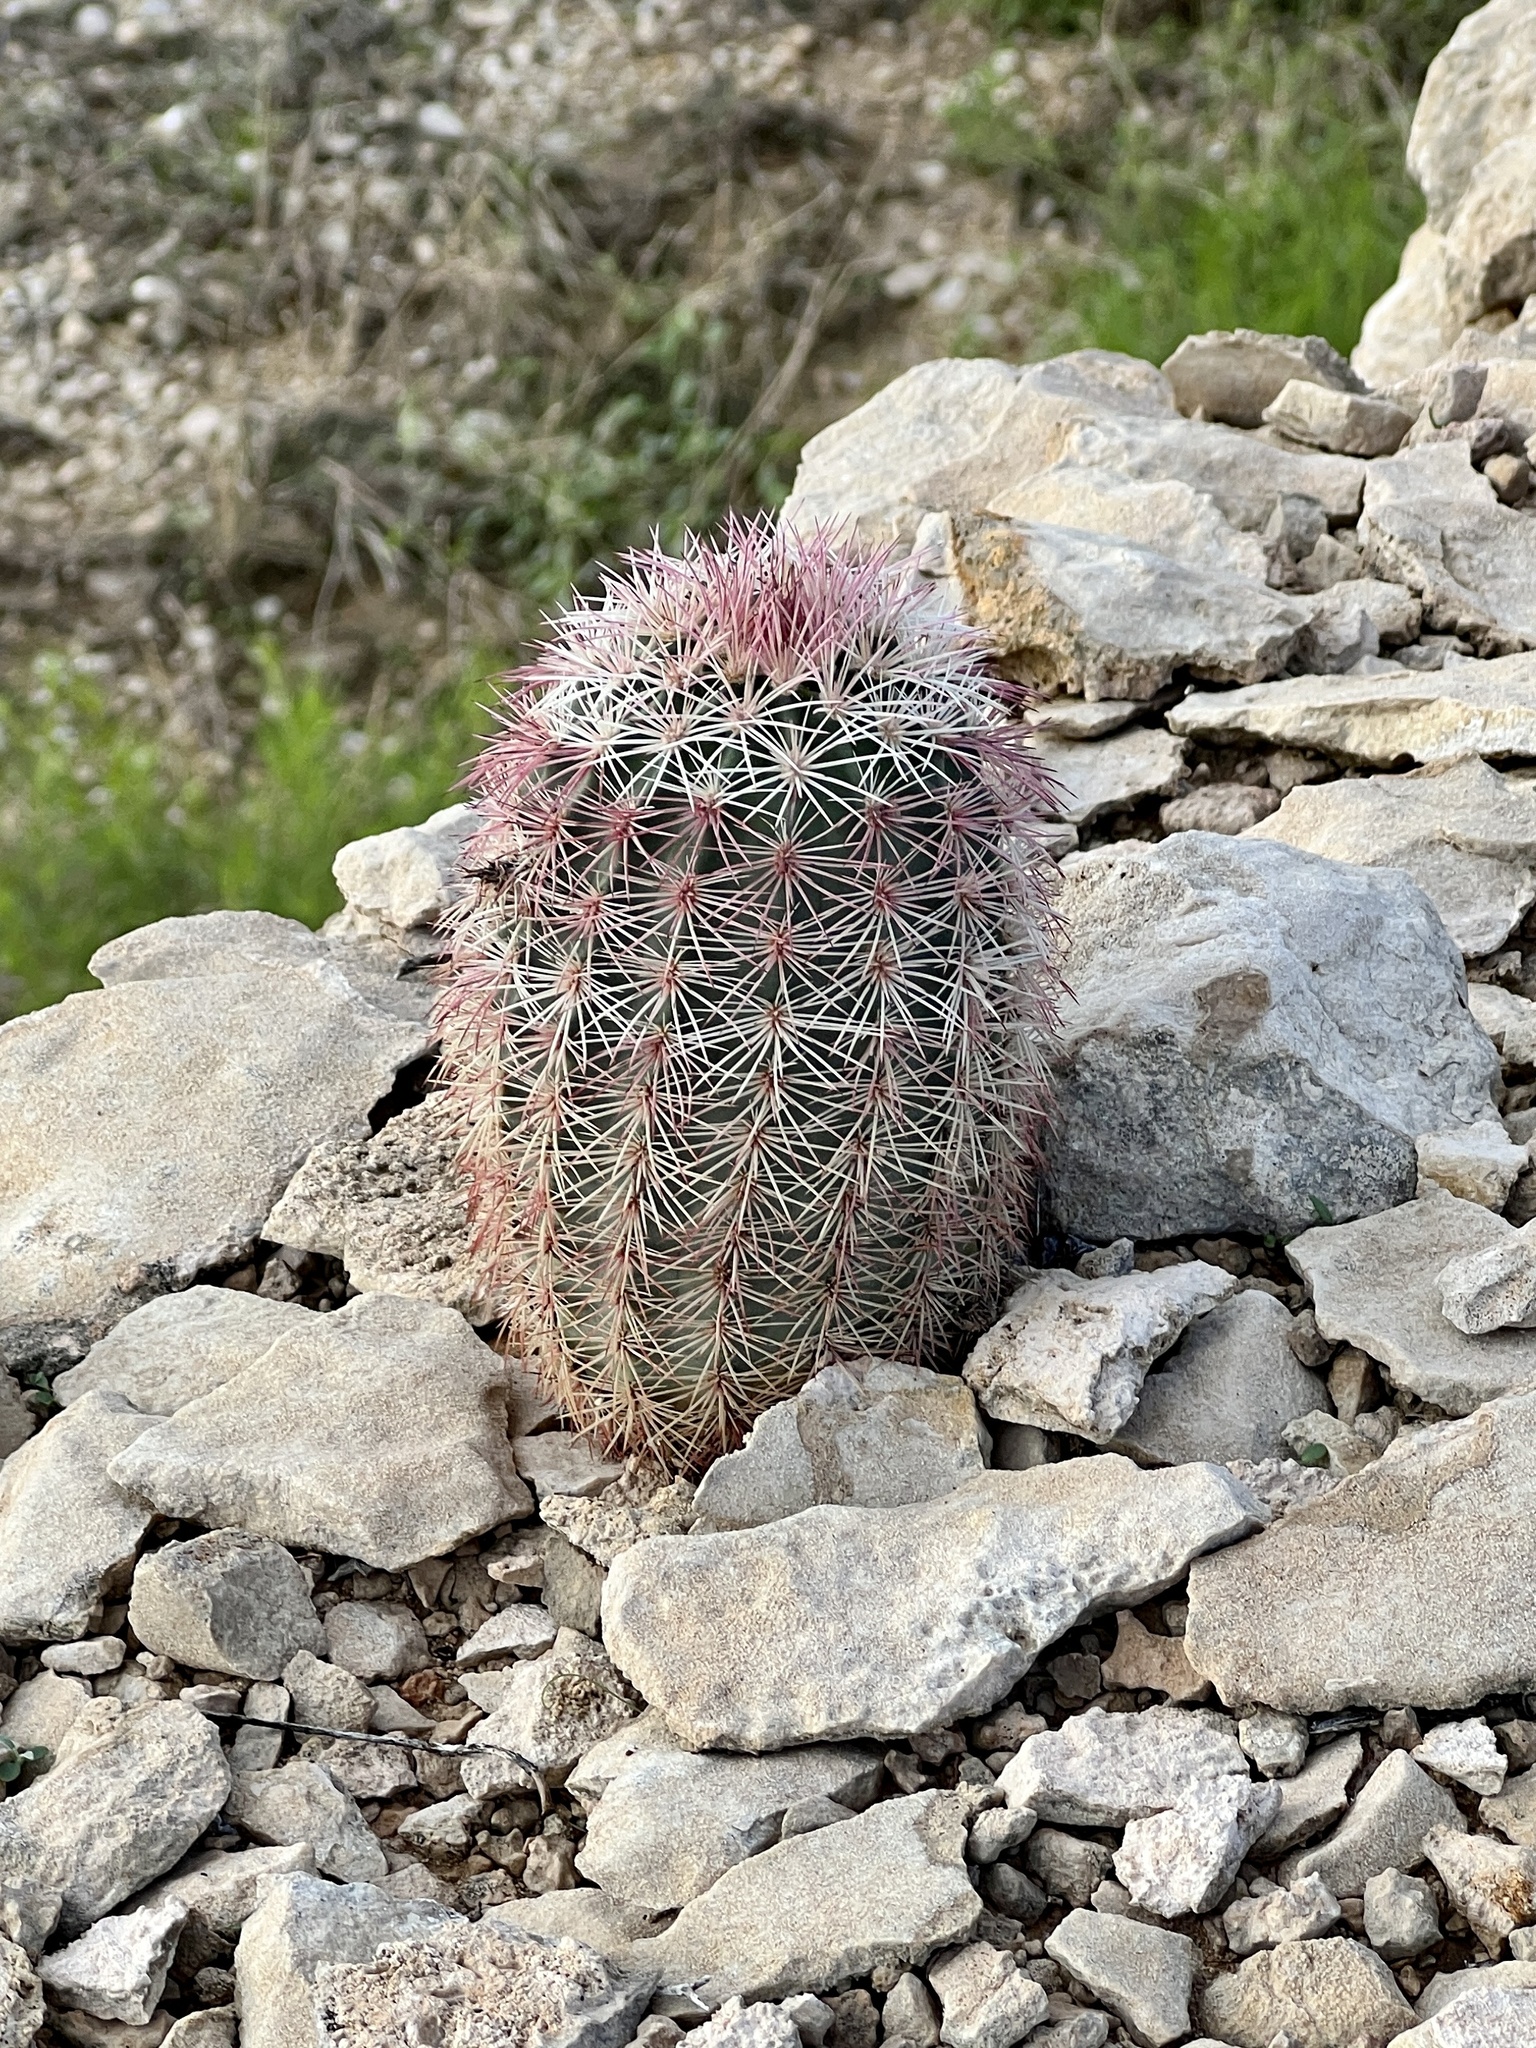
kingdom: Plantae
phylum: Tracheophyta
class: Magnoliopsida
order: Caryophyllales
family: Cactaceae
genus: Echinocereus
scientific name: Echinocereus dasyacanthus
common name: Spiny hedgehog cactus
